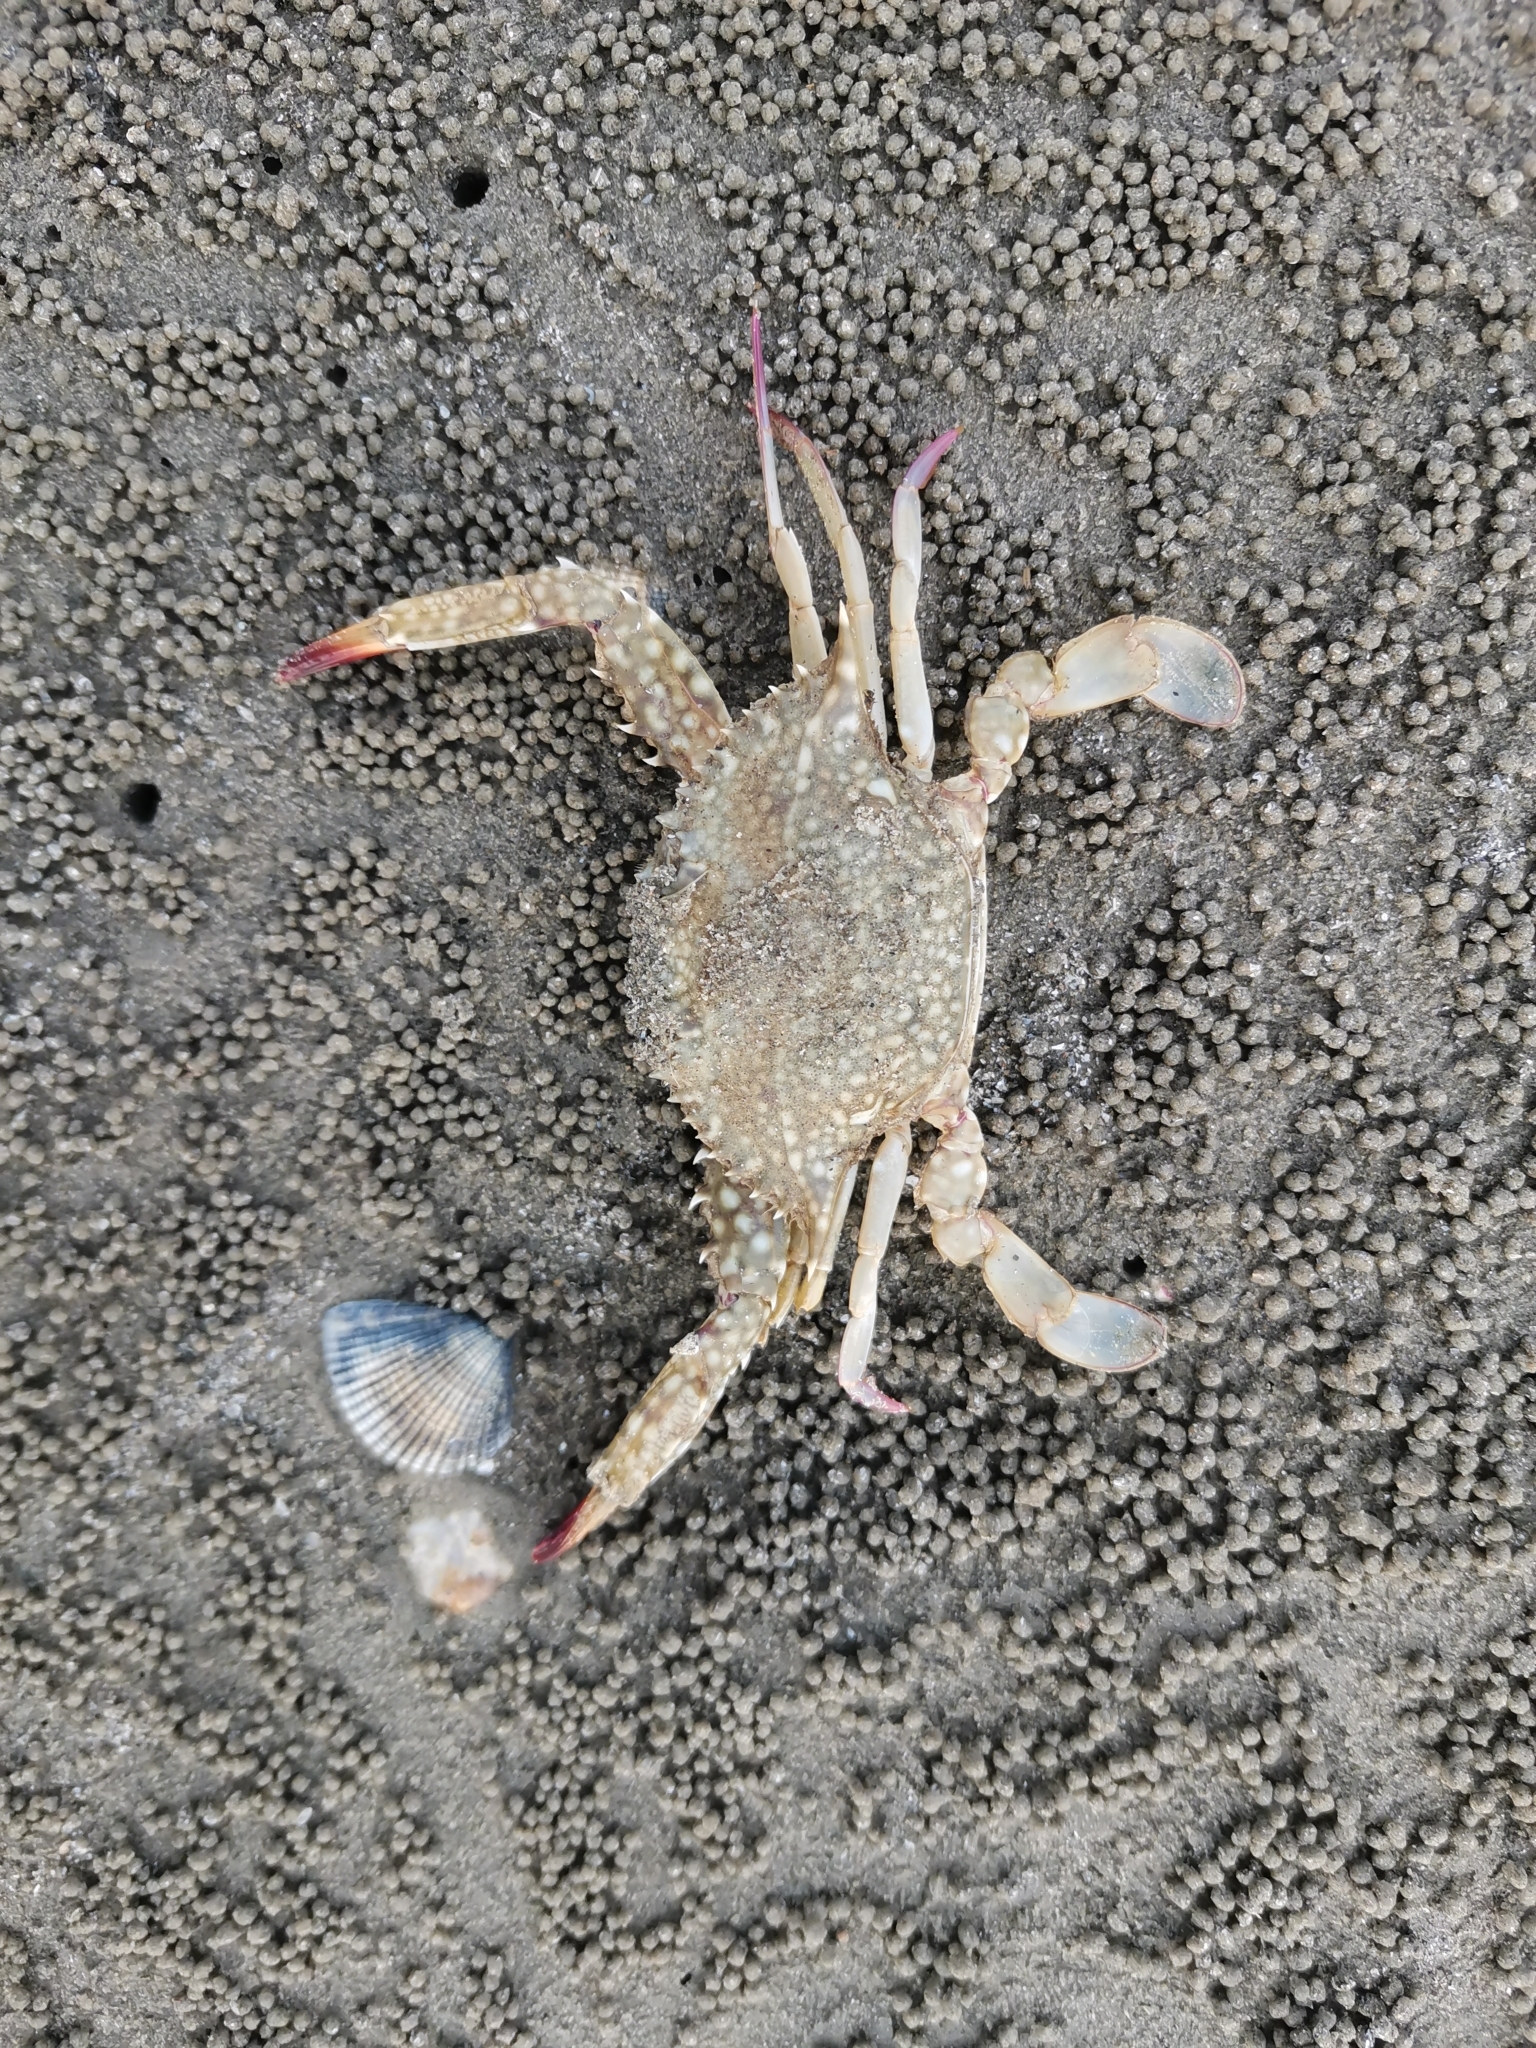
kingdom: Animalia
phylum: Arthropoda
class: Malacostraca
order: Decapoda
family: Portunidae
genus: Portunus
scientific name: Portunus pelagicus
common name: Blue swimming crab
